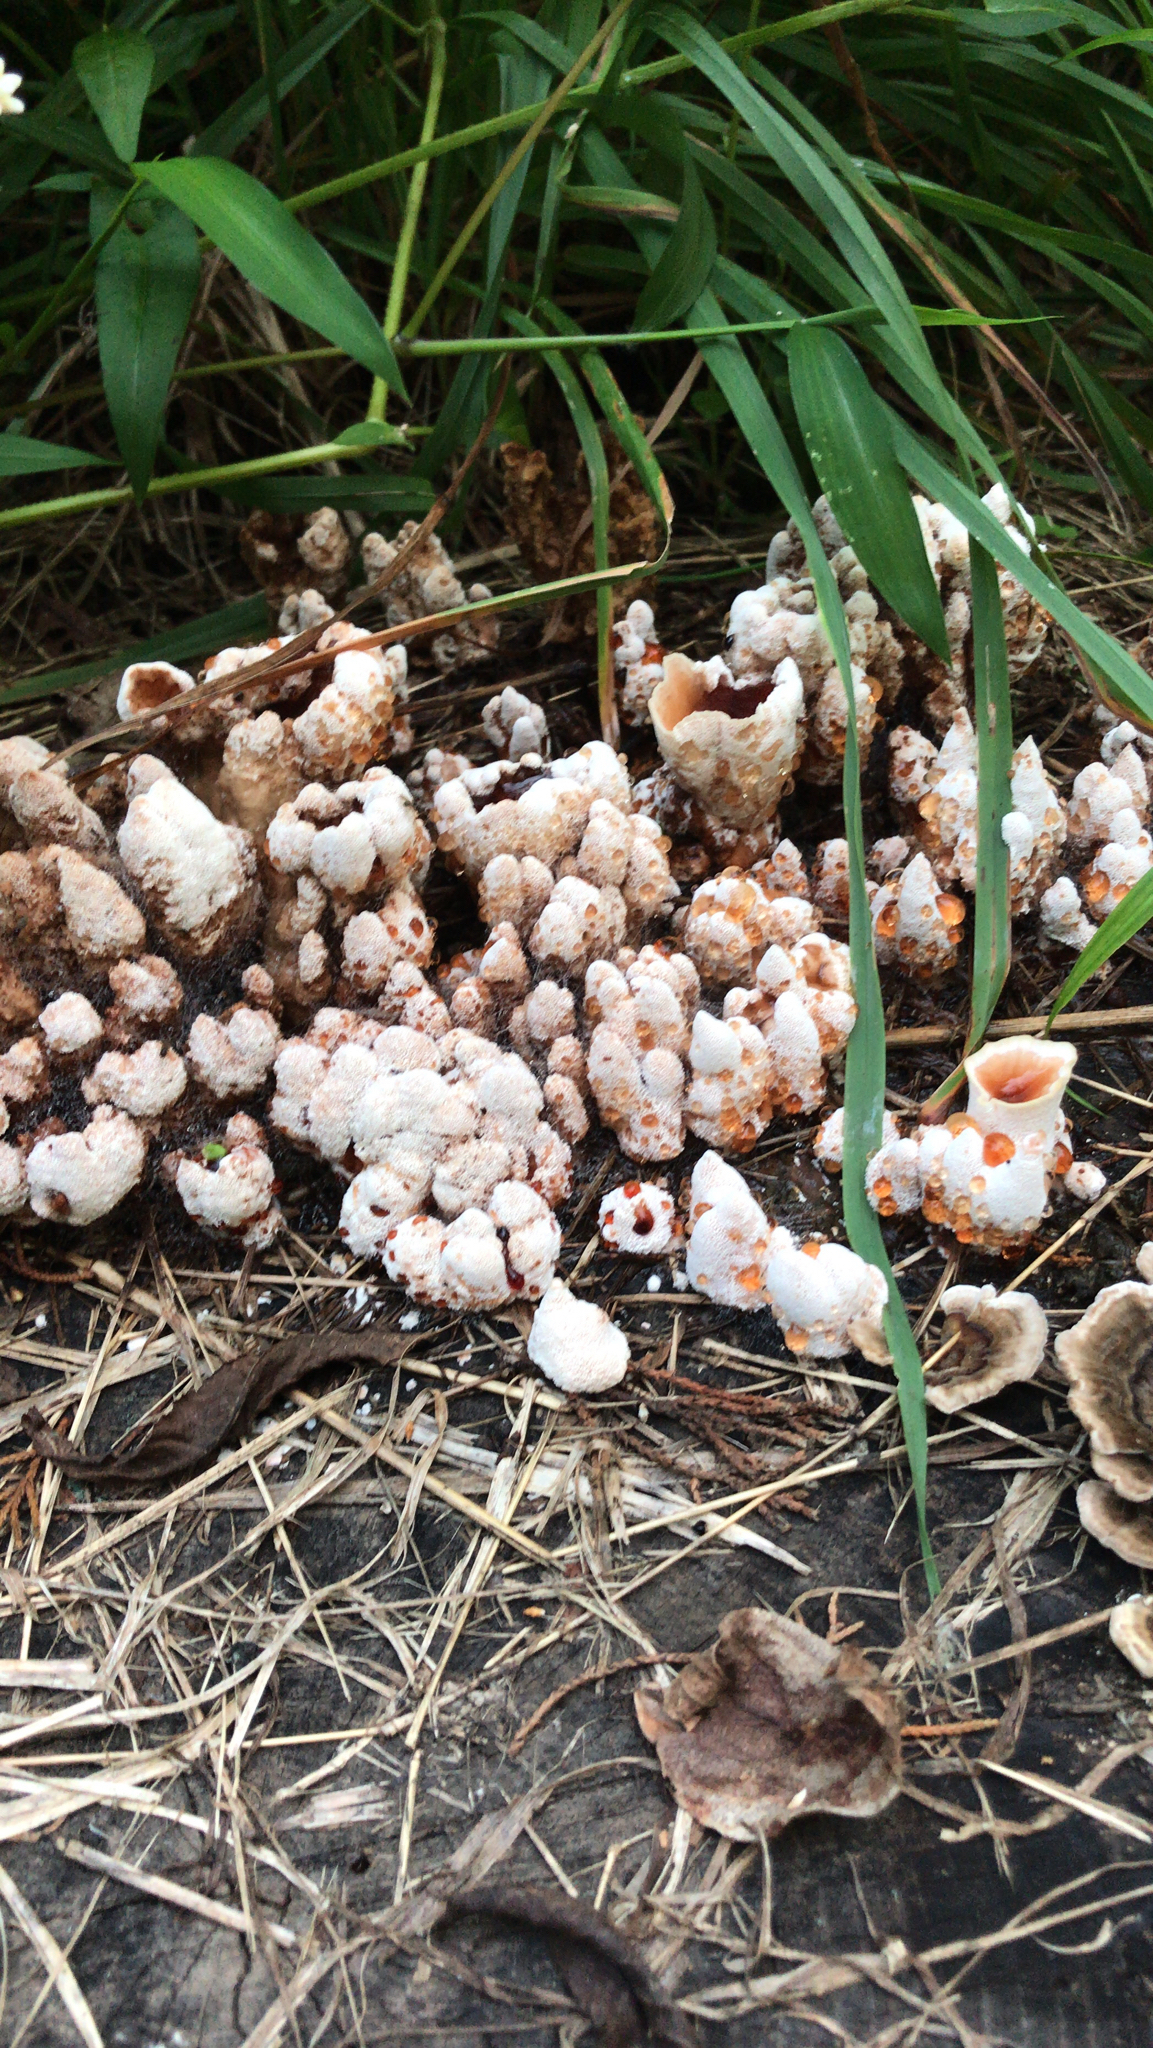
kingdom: Fungi
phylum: Basidiomycota
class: Agaricomycetes
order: Polyporales
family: Podoscyphaceae
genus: Abortiporus
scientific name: Abortiporus biennis
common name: Blushing rosette
